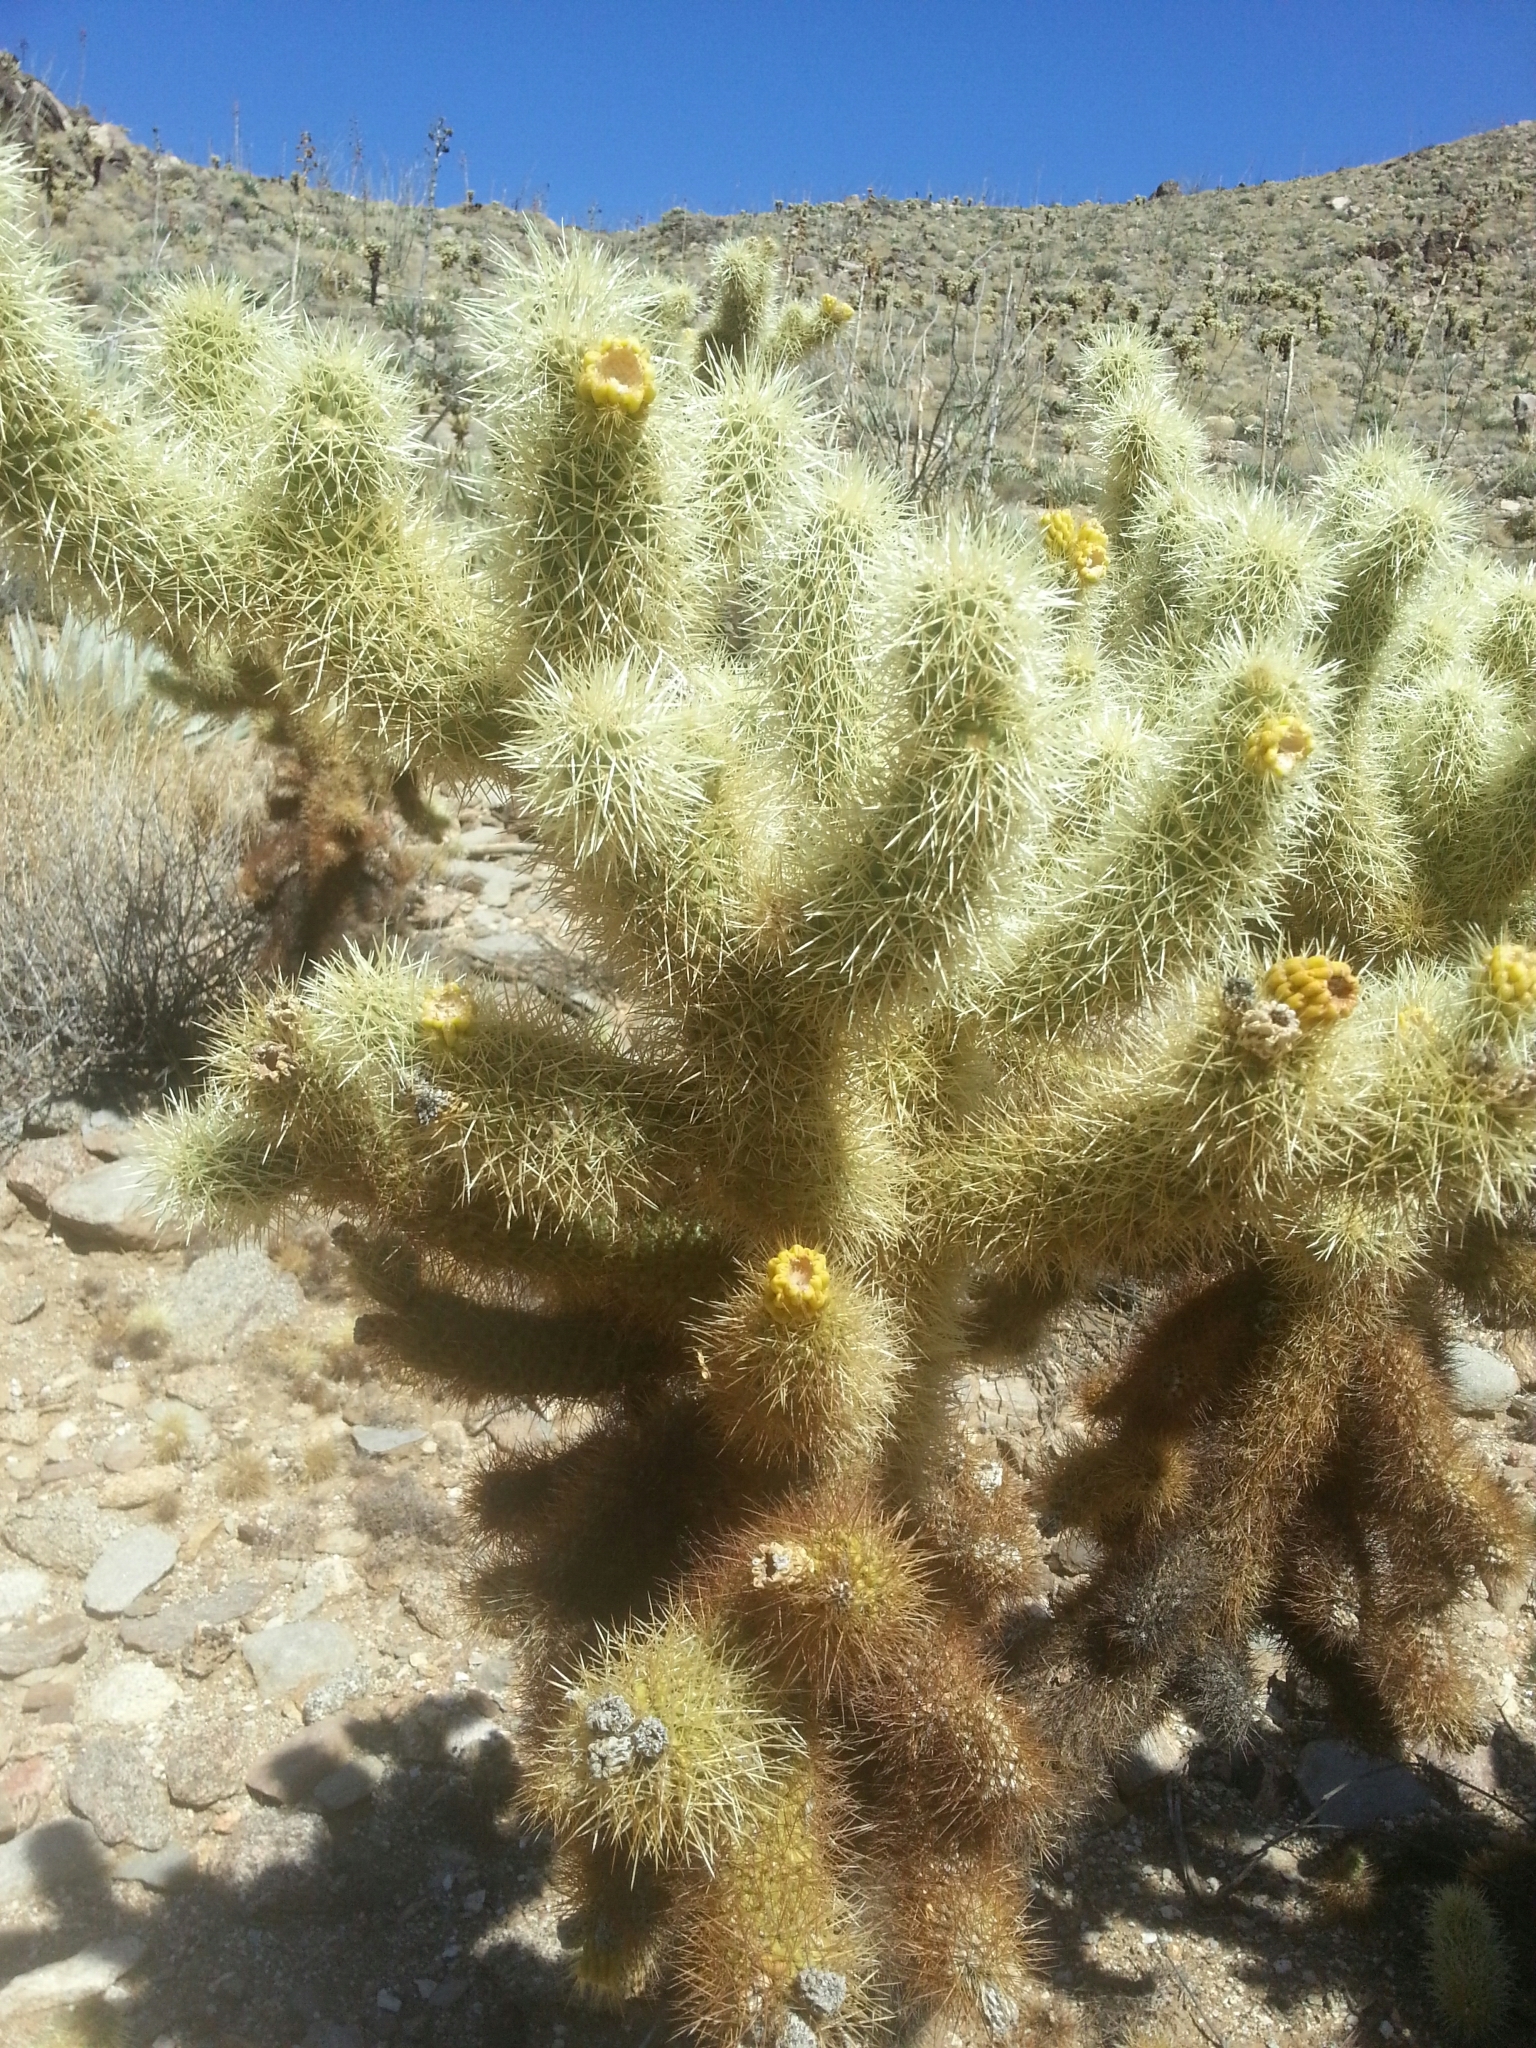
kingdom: Plantae
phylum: Tracheophyta
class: Magnoliopsida
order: Caryophyllales
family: Cactaceae
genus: Cylindropuntia
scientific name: Cylindropuntia fosbergii
